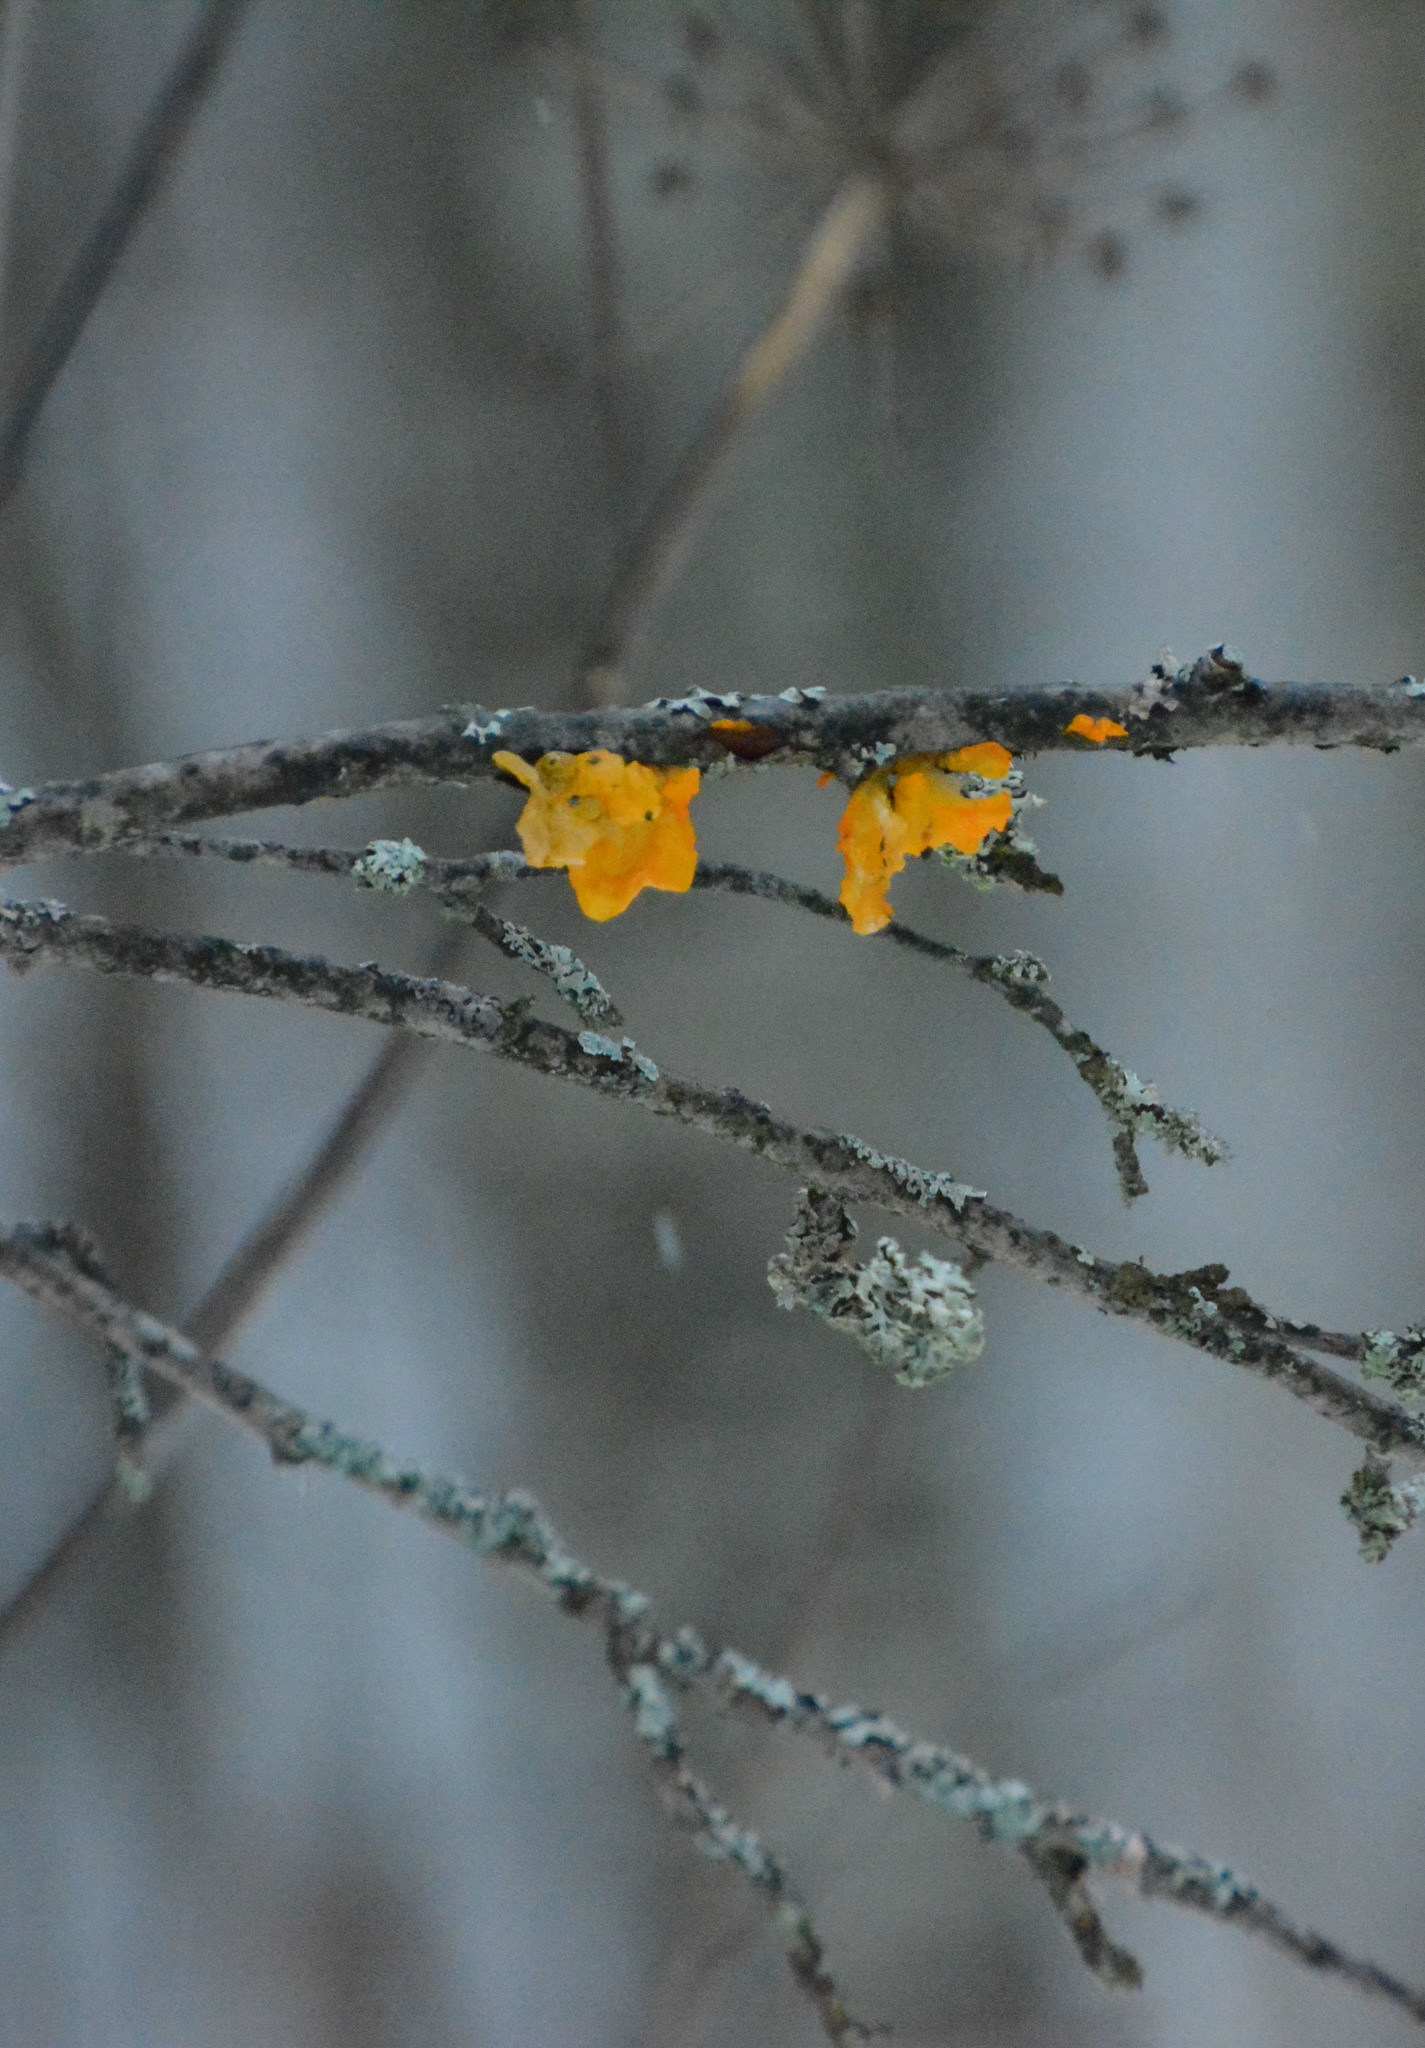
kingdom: Fungi
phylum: Basidiomycota
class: Tremellomycetes
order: Tremellales
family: Tremellaceae
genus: Tremella
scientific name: Tremella mesenterica
